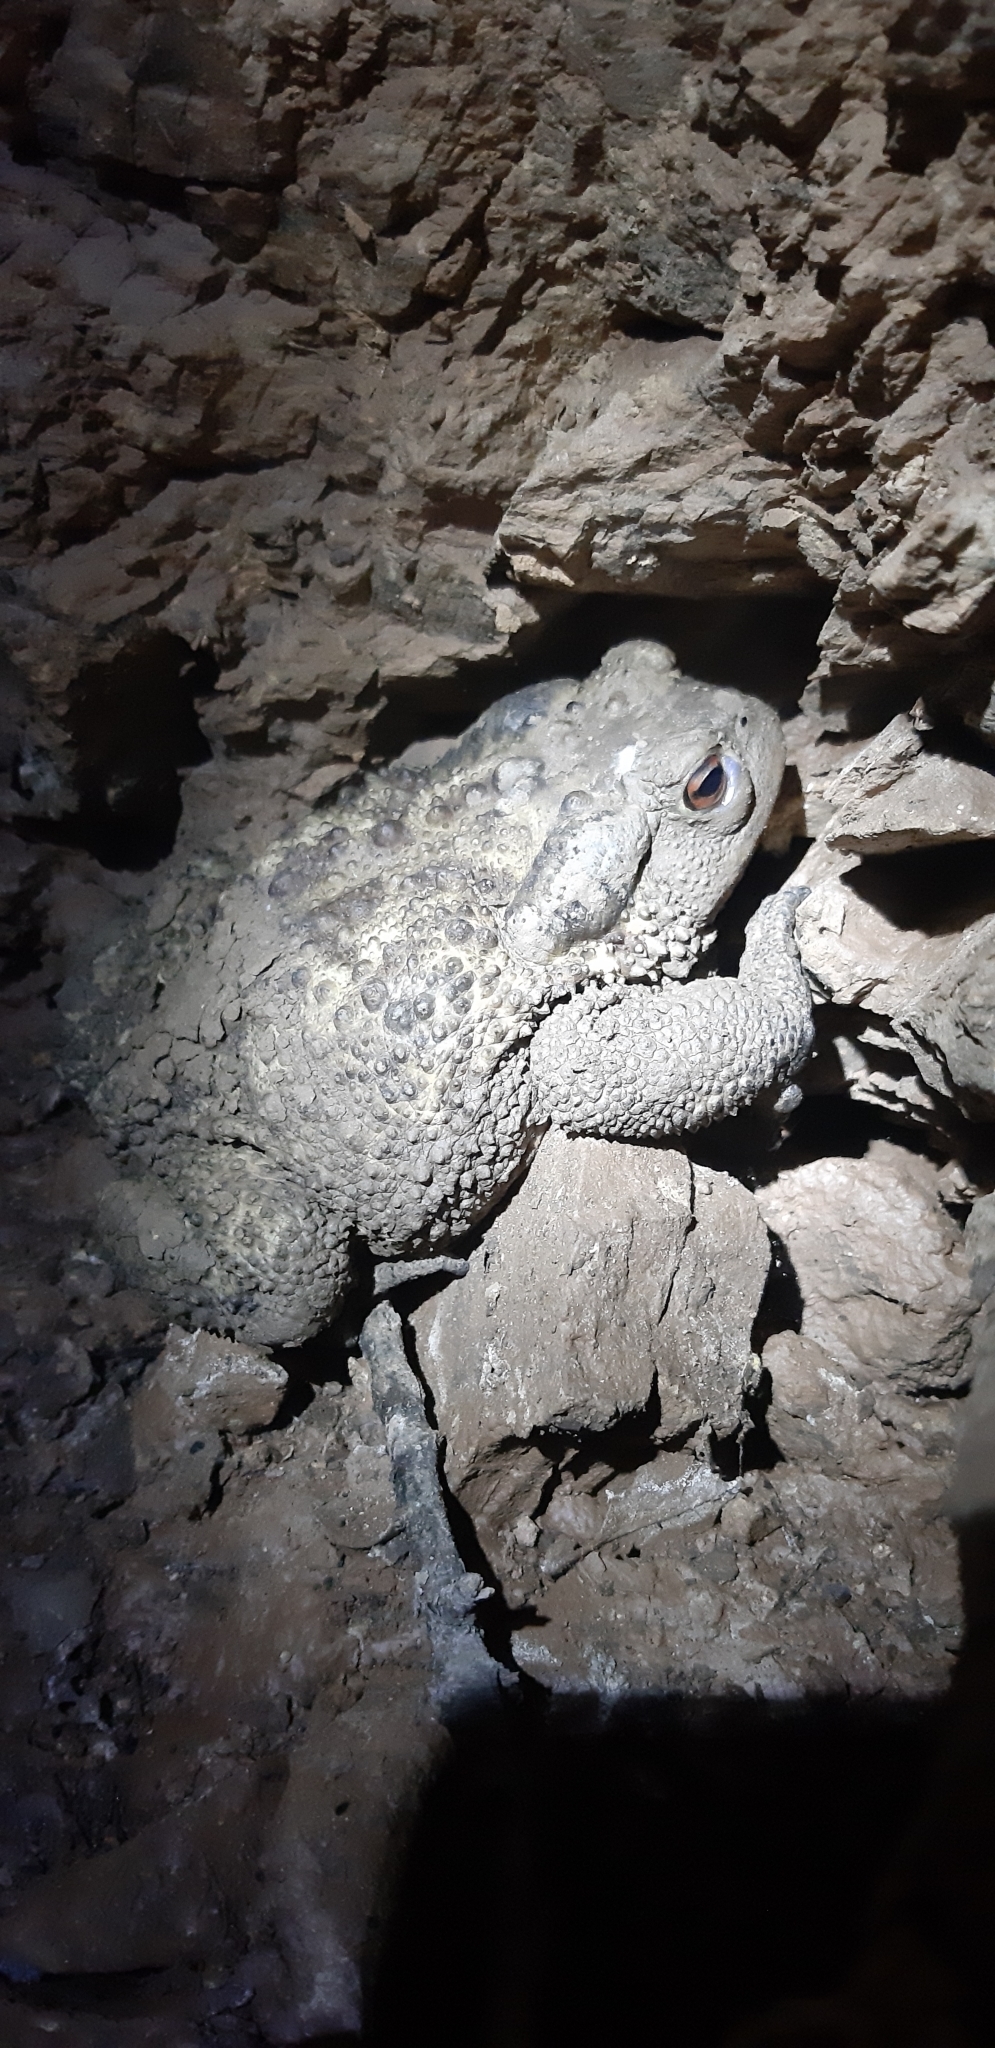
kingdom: Animalia
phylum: Chordata
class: Amphibia
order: Anura
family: Bufonidae
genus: Bufo
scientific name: Bufo bufo
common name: Common toad
